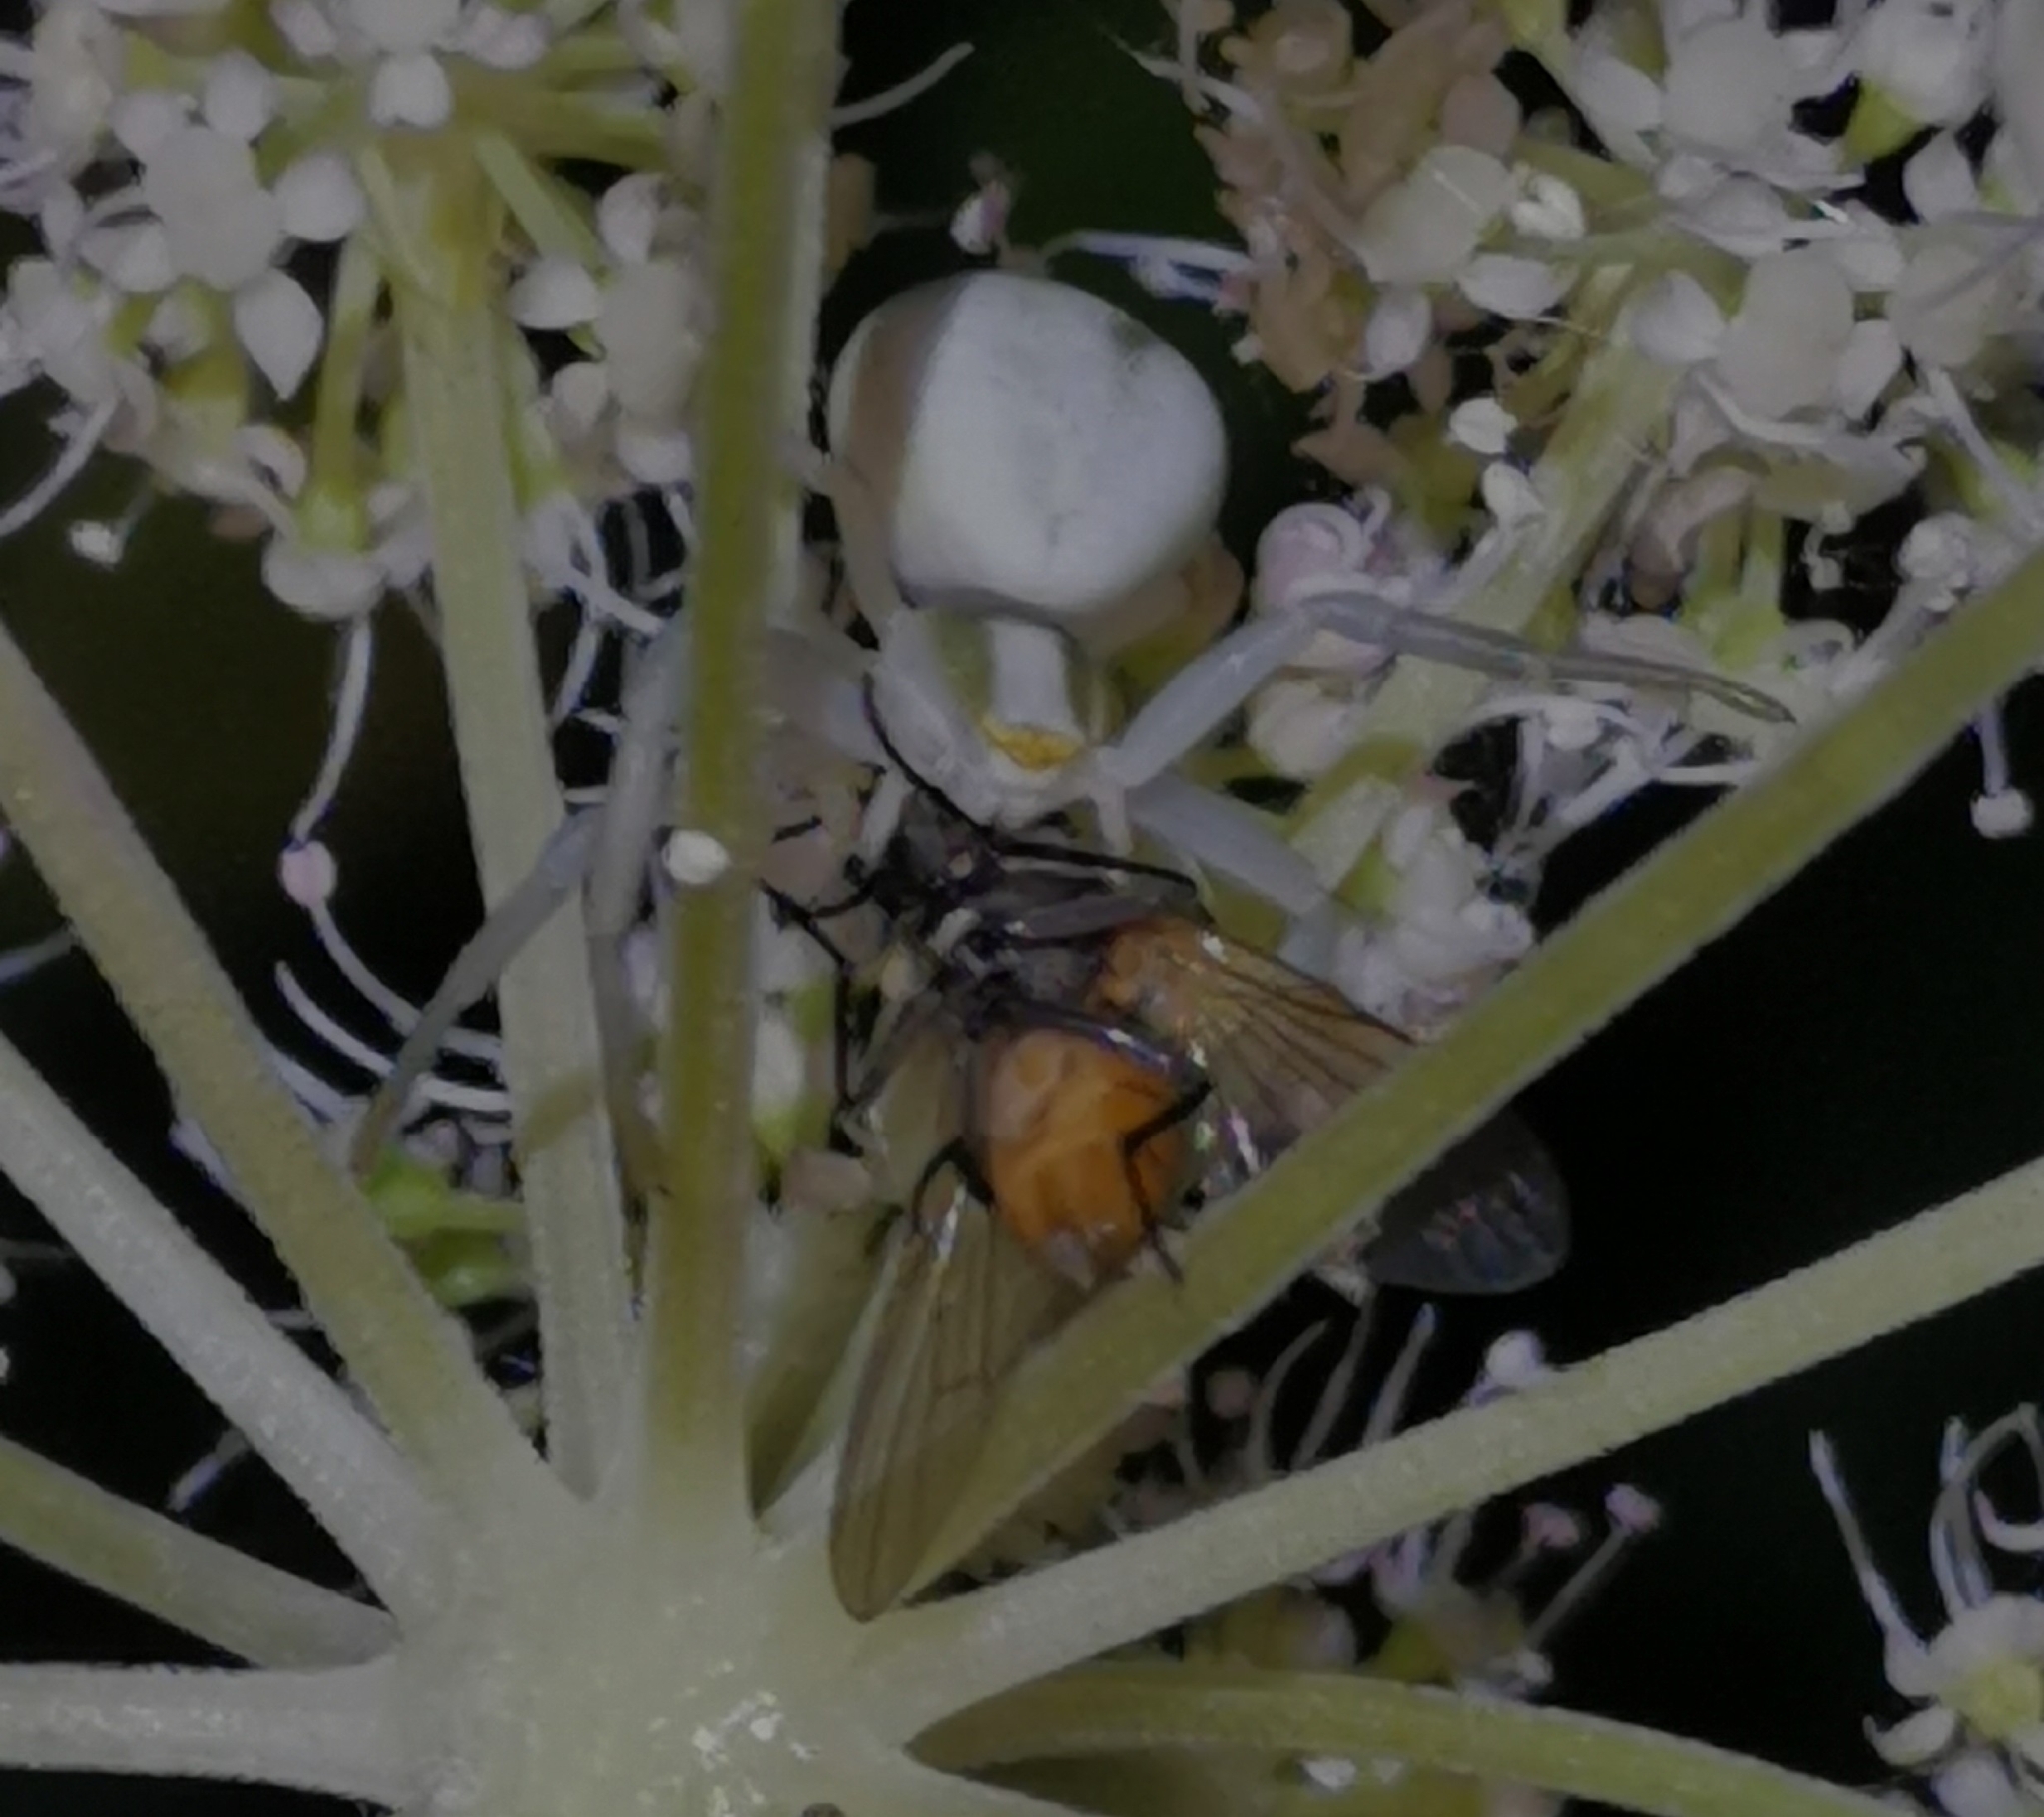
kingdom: Animalia
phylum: Arthropoda
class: Arachnida
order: Araneae
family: Thomisidae
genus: Misumena
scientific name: Misumena vatia
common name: Goldenrod crab spider
